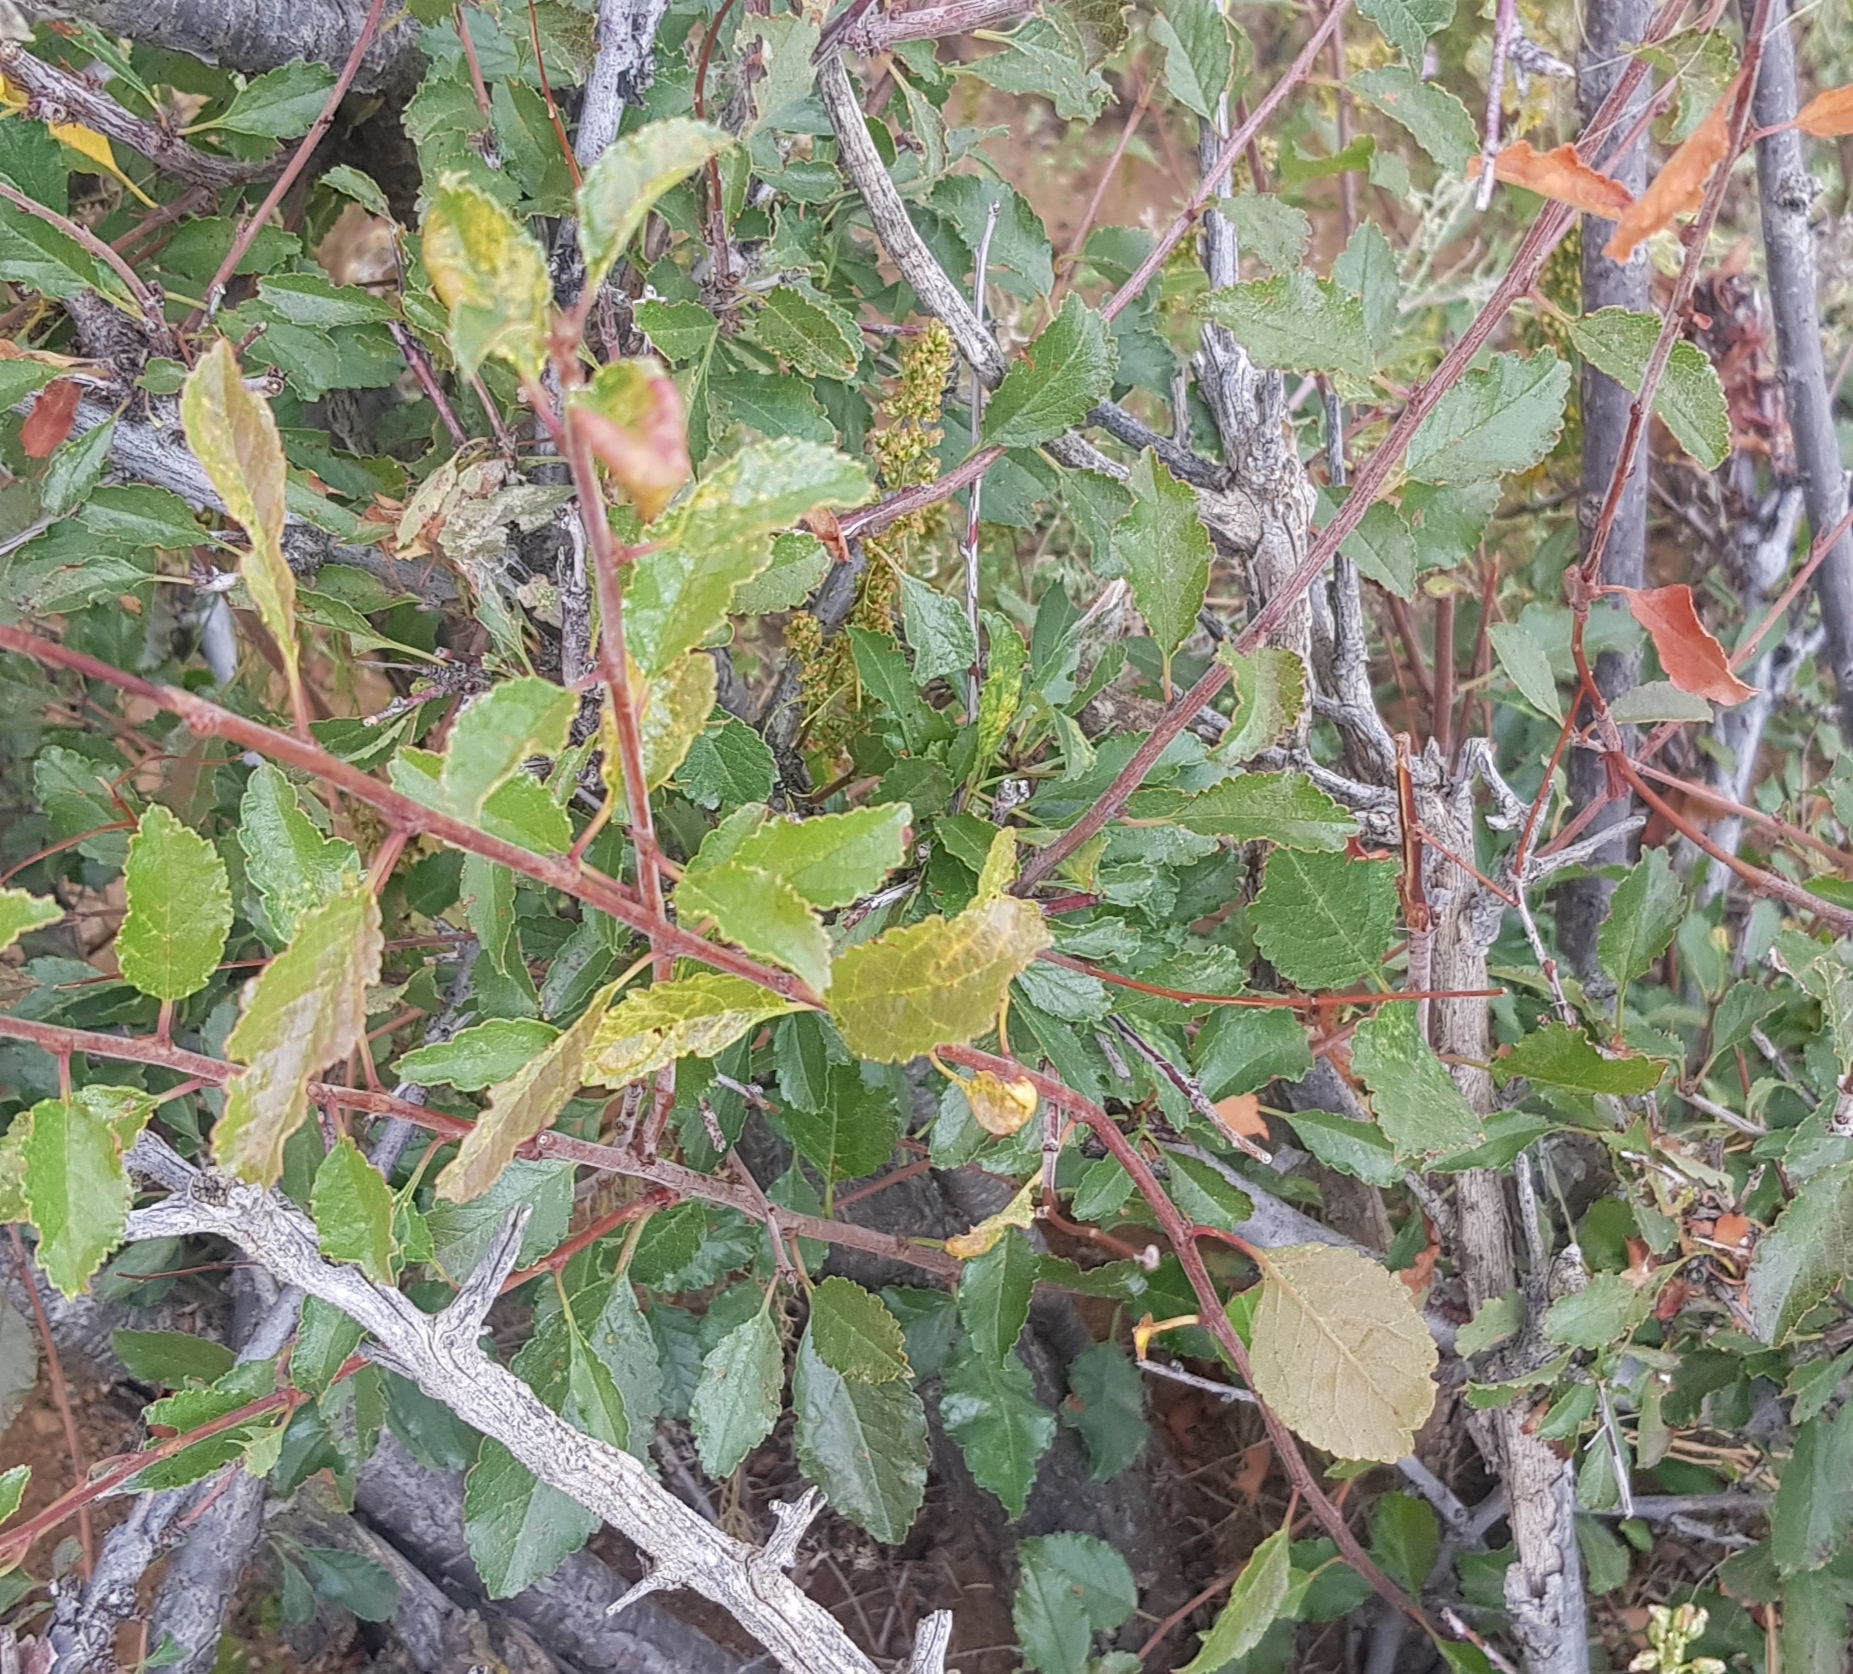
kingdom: Plantae
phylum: Tracheophyta
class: Magnoliopsida
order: Rosales
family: Rosaceae
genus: Prunus
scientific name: Prunus pedunculata
